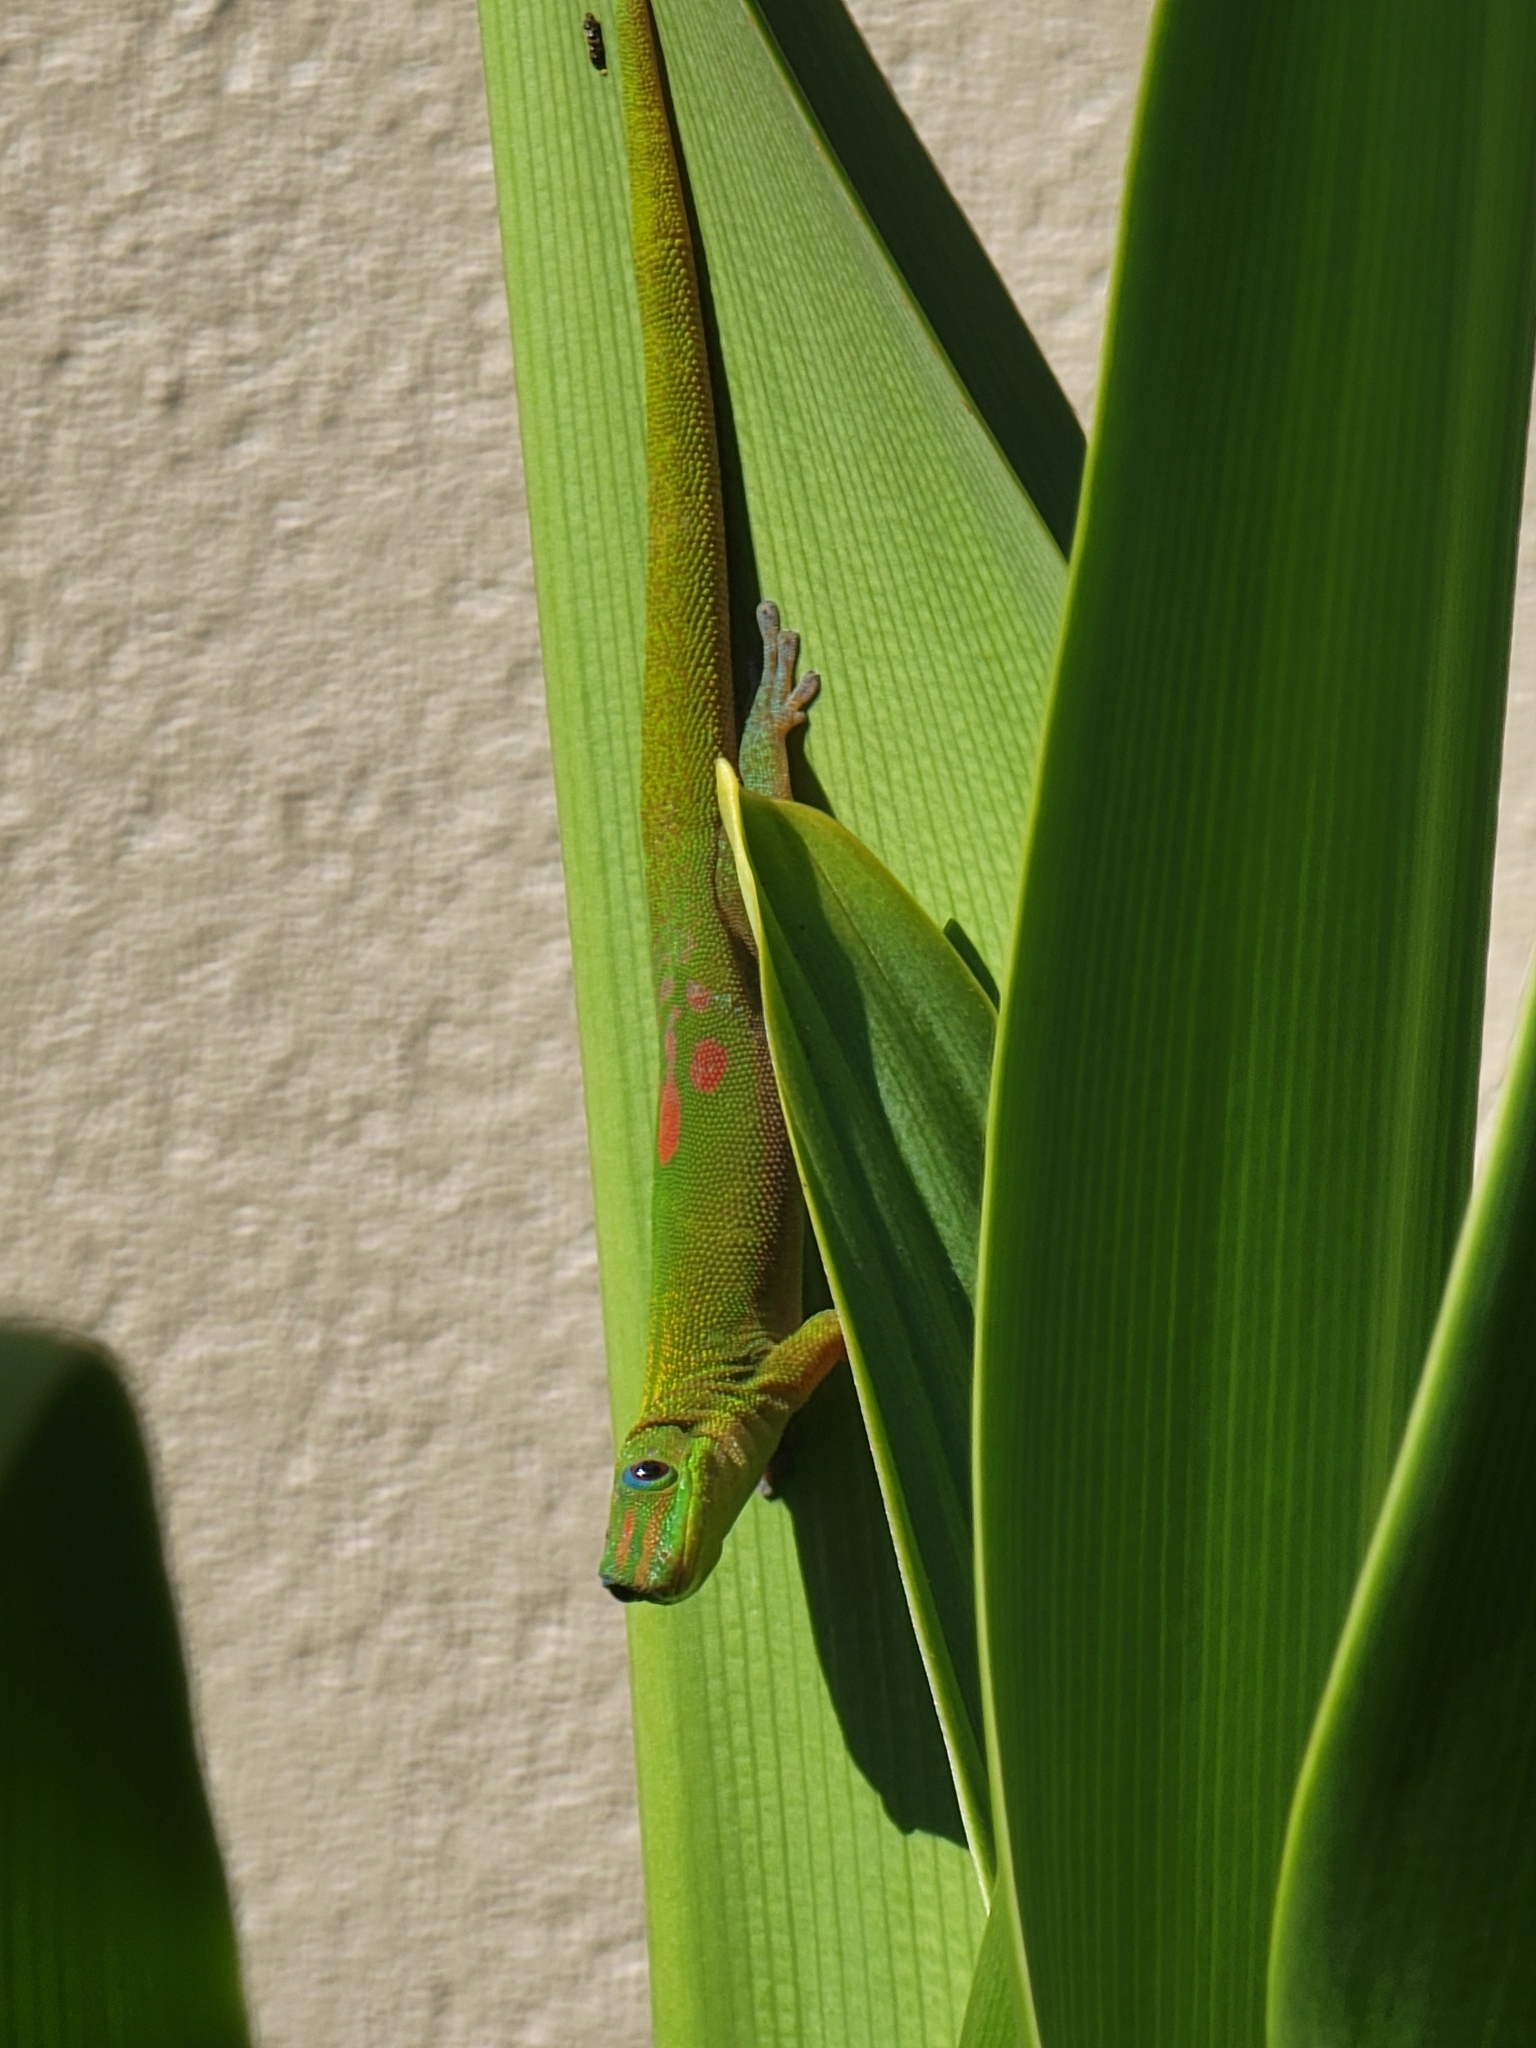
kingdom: Animalia
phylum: Chordata
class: Squamata
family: Gekkonidae
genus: Phelsuma
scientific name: Phelsuma laticauda
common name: Gold dust day gecko
